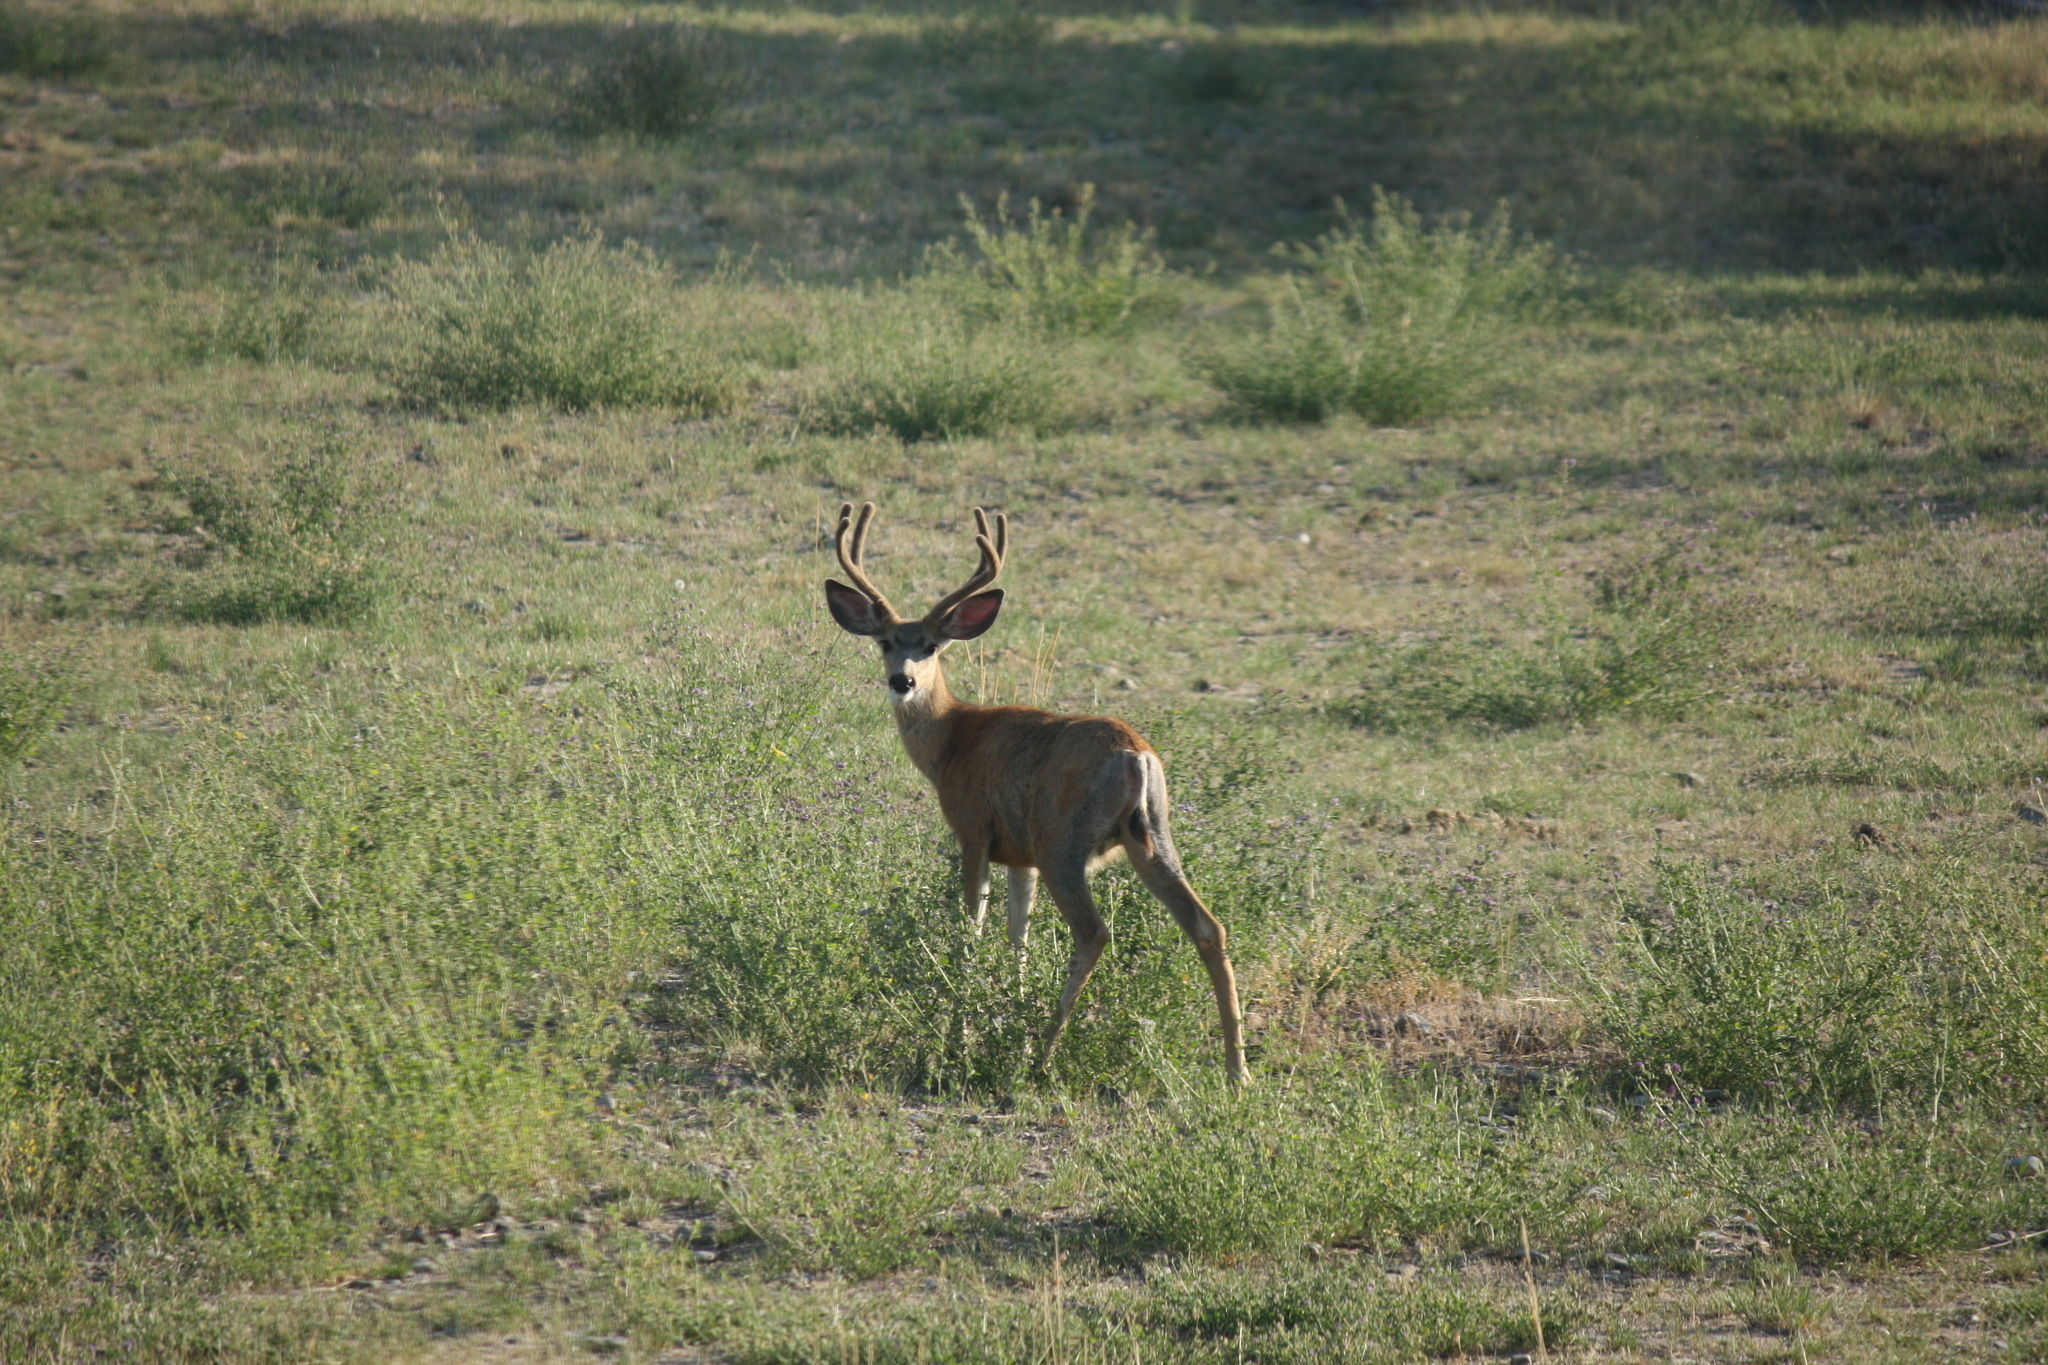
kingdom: Animalia
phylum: Chordata
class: Mammalia
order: Artiodactyla
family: Cervidae
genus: Odocoileus
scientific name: Odocoileus hemionus
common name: Mule deer
